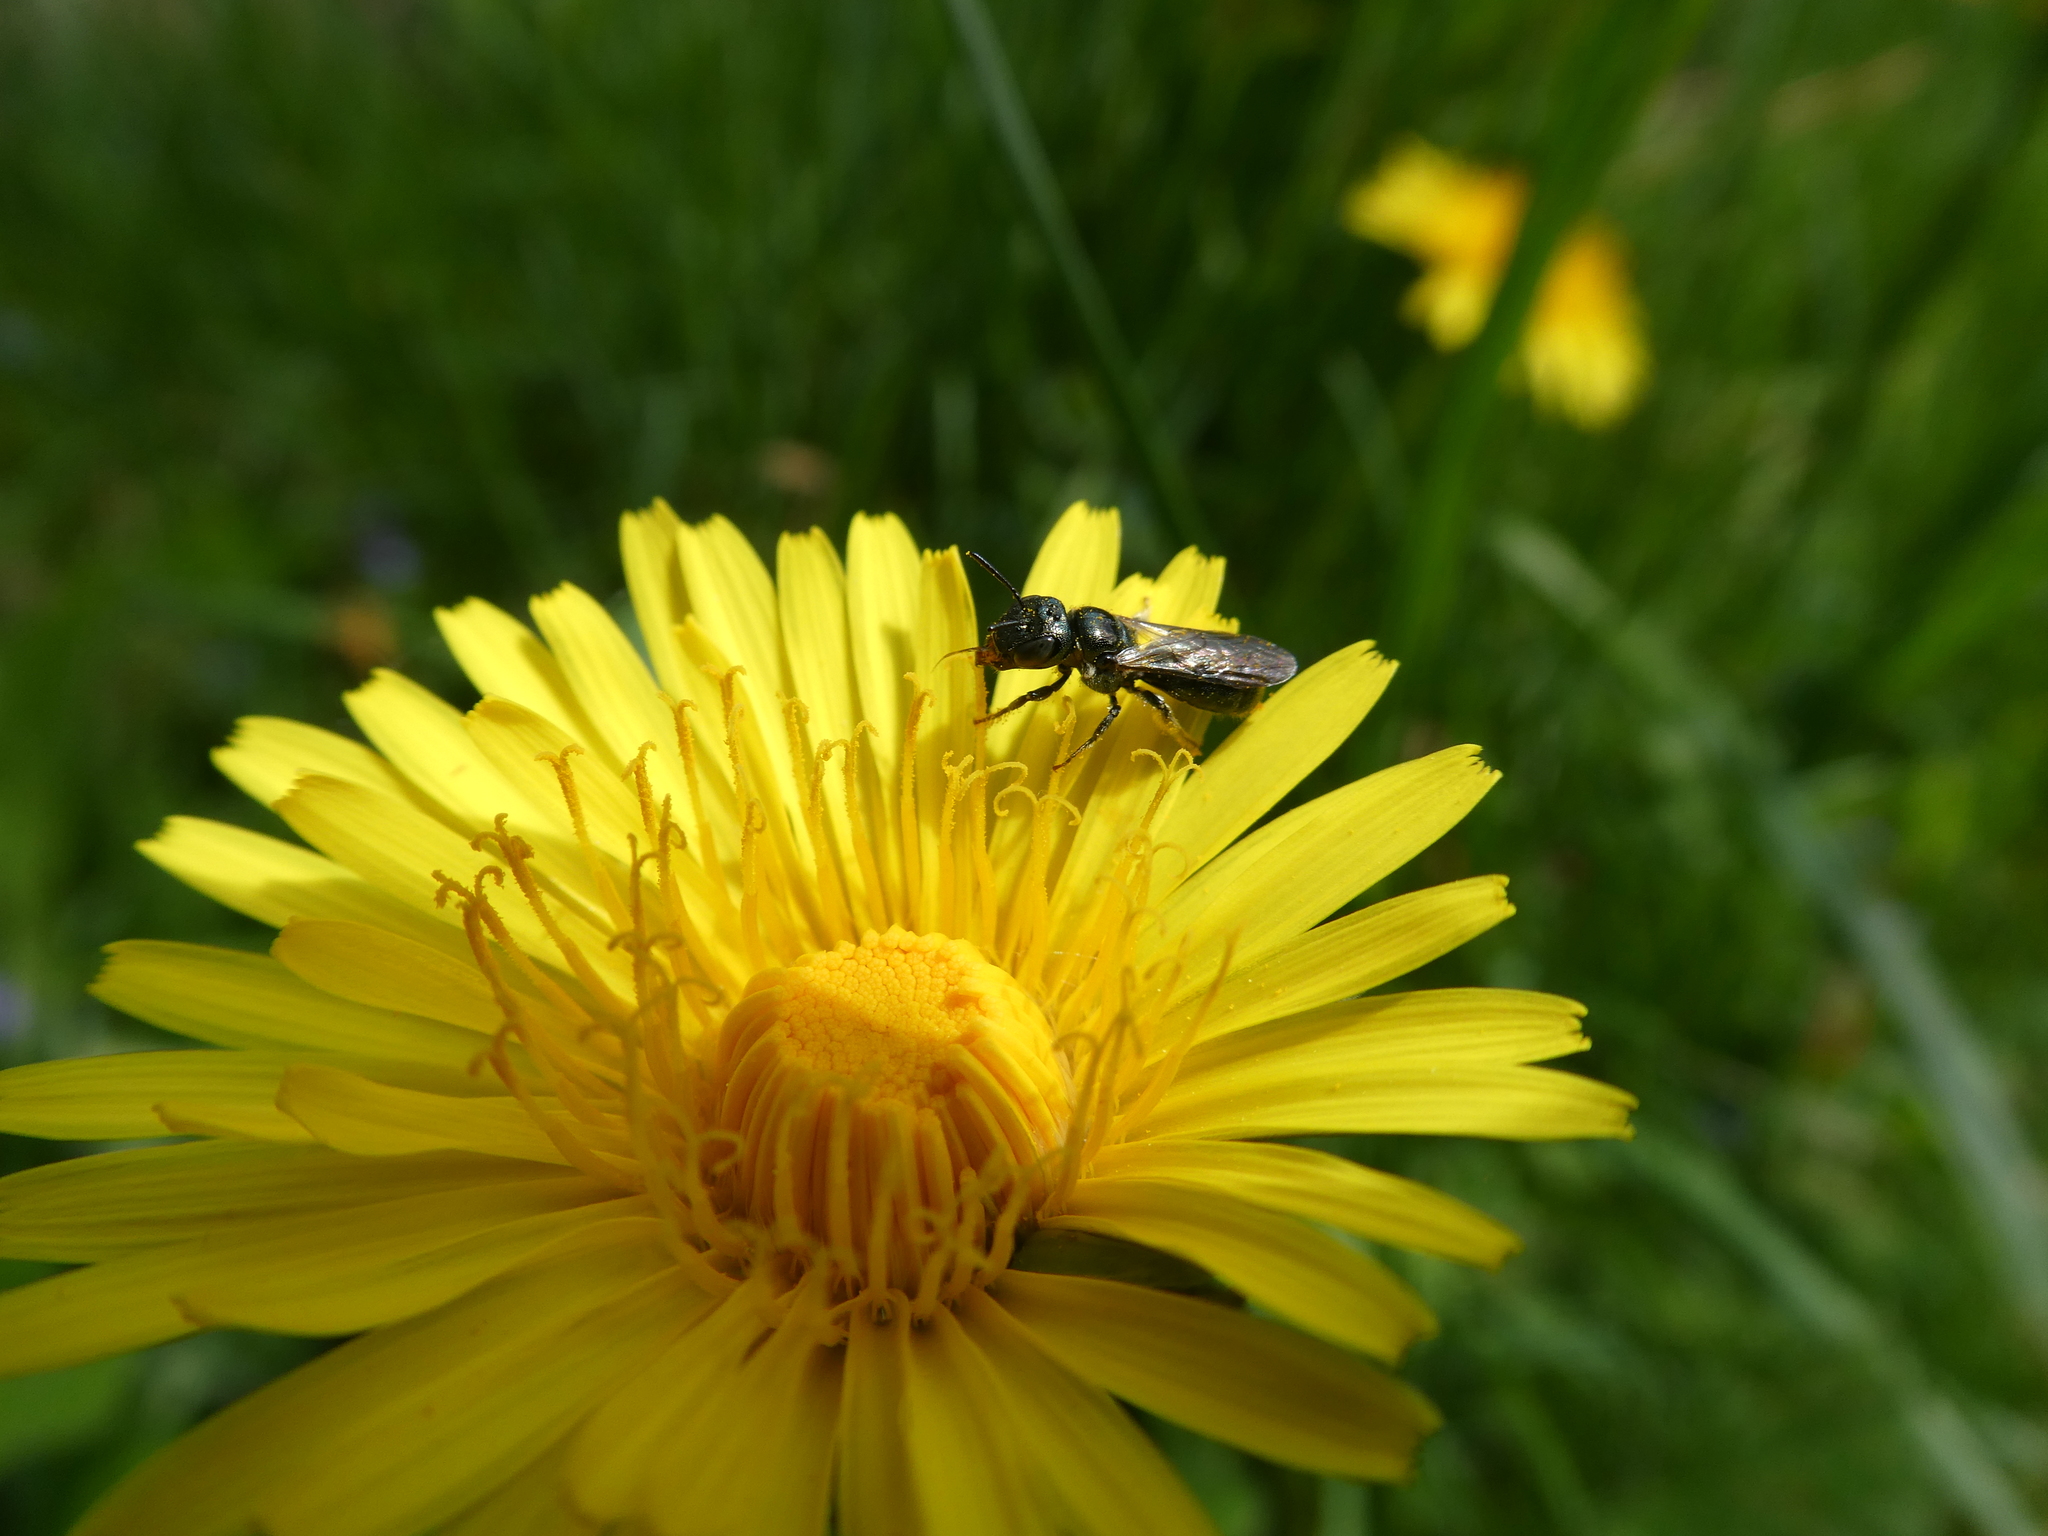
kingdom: Animalia
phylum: Arthropoda
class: Insecta
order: Hymenoptera
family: Apidae
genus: Zadontomerus
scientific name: Zadontomerus
